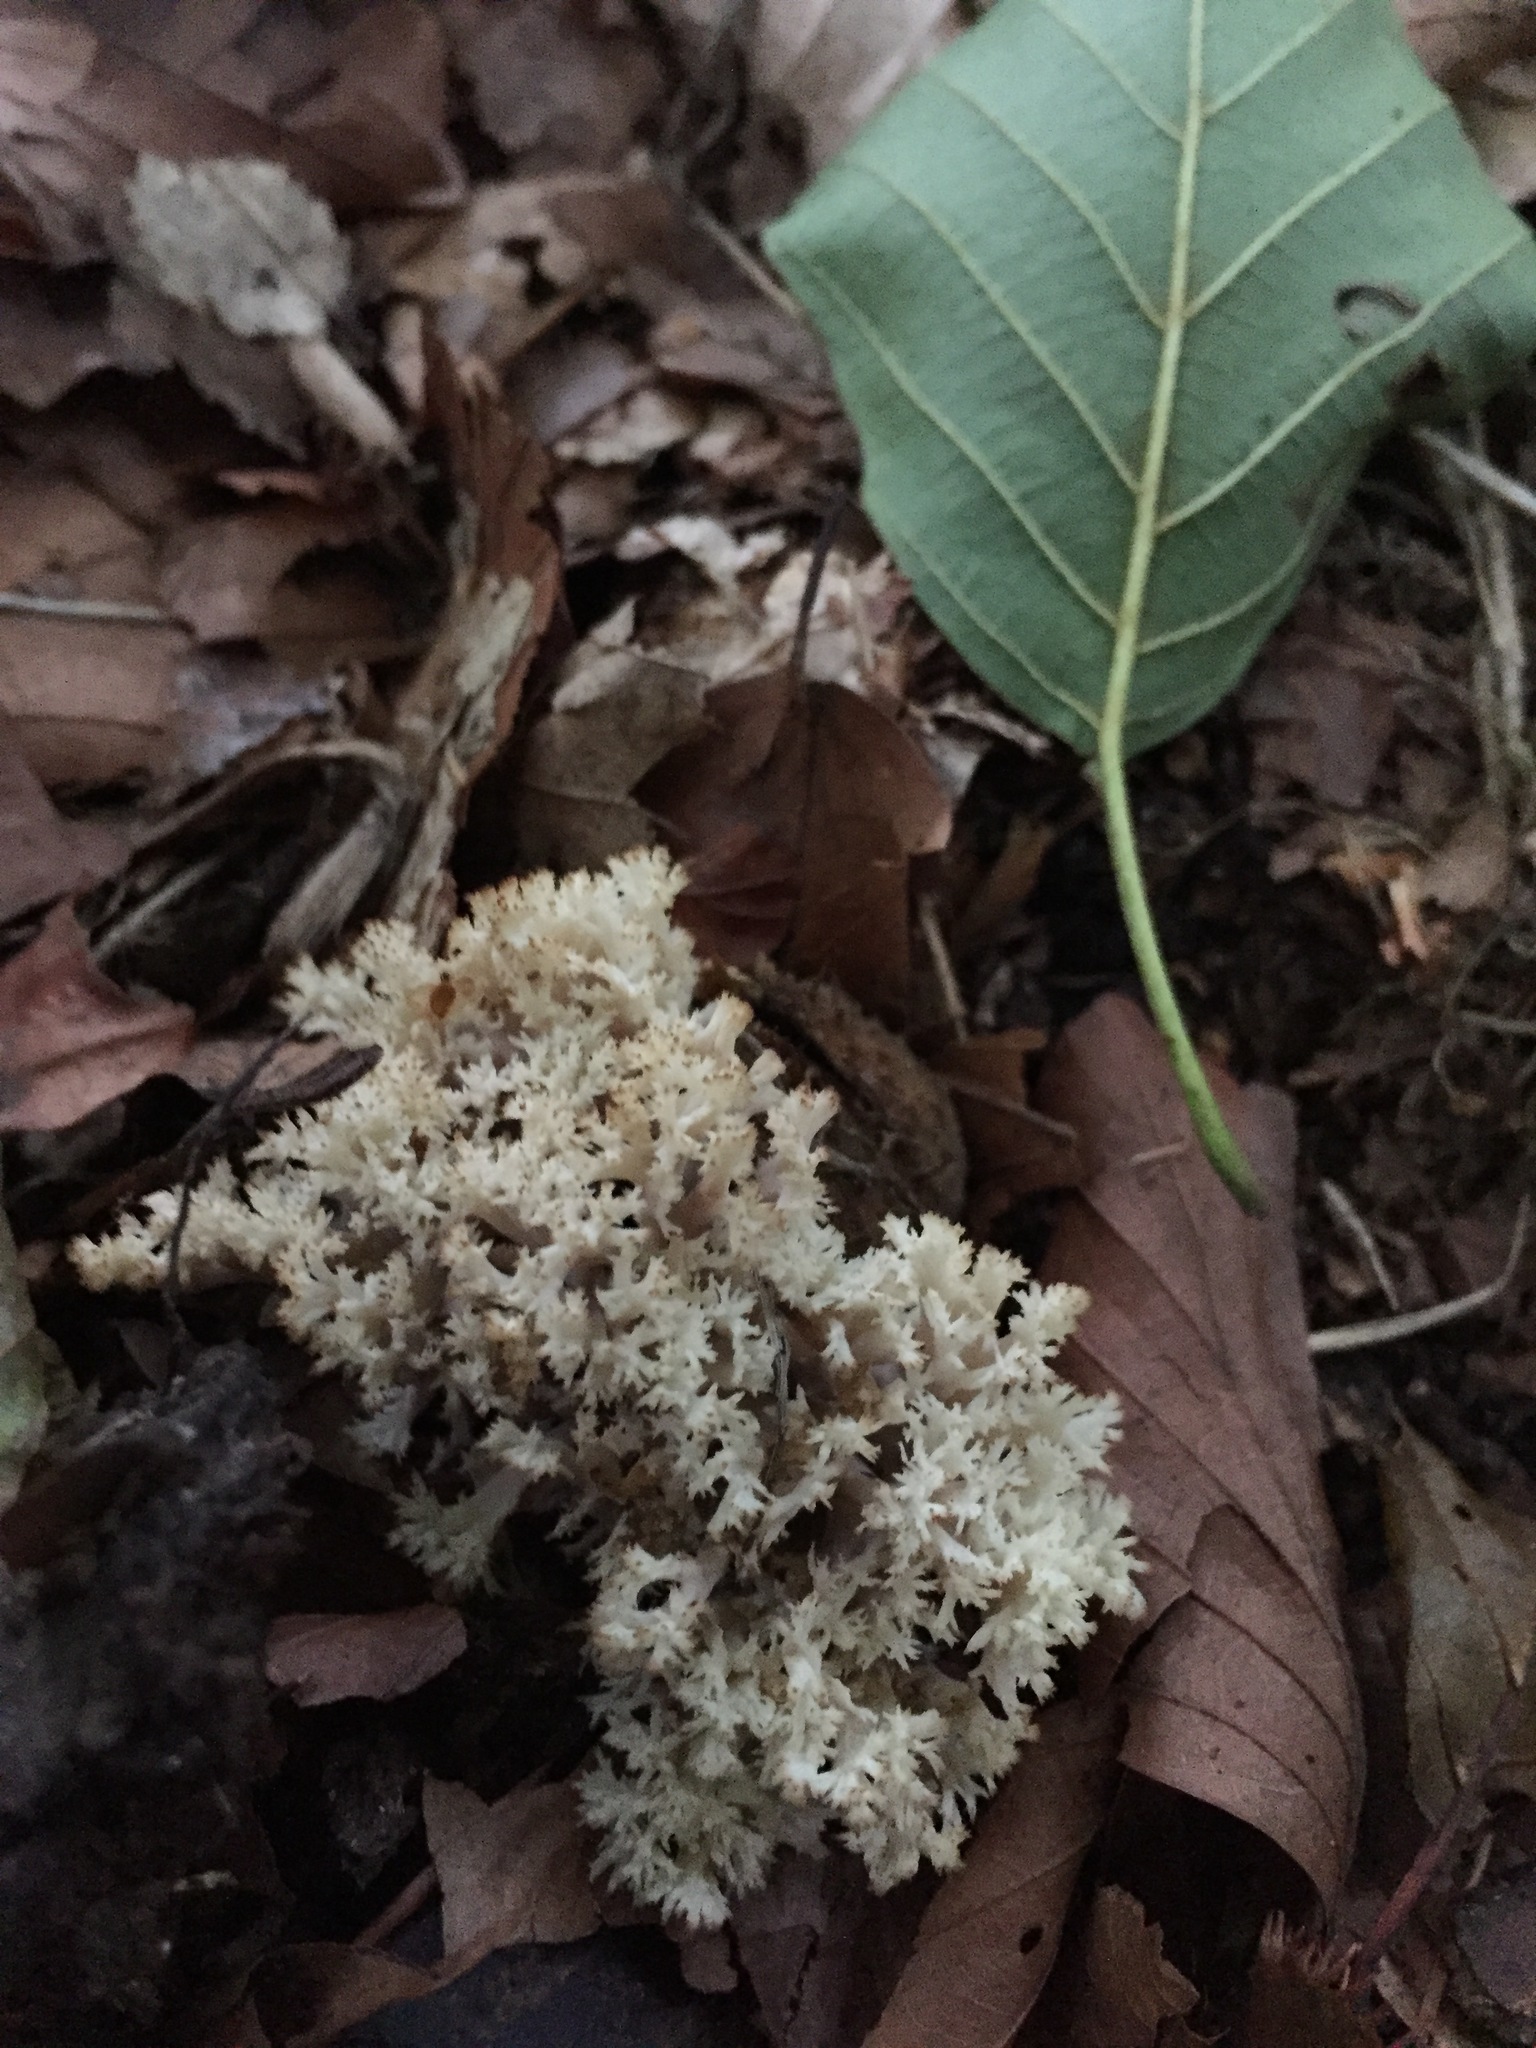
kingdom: Fungi
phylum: Basidiomycota
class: Agaricomycetes
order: Cantharellales
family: Hydnaceae
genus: Clavulina
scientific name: Clavulina coralloides
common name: Crested coral
